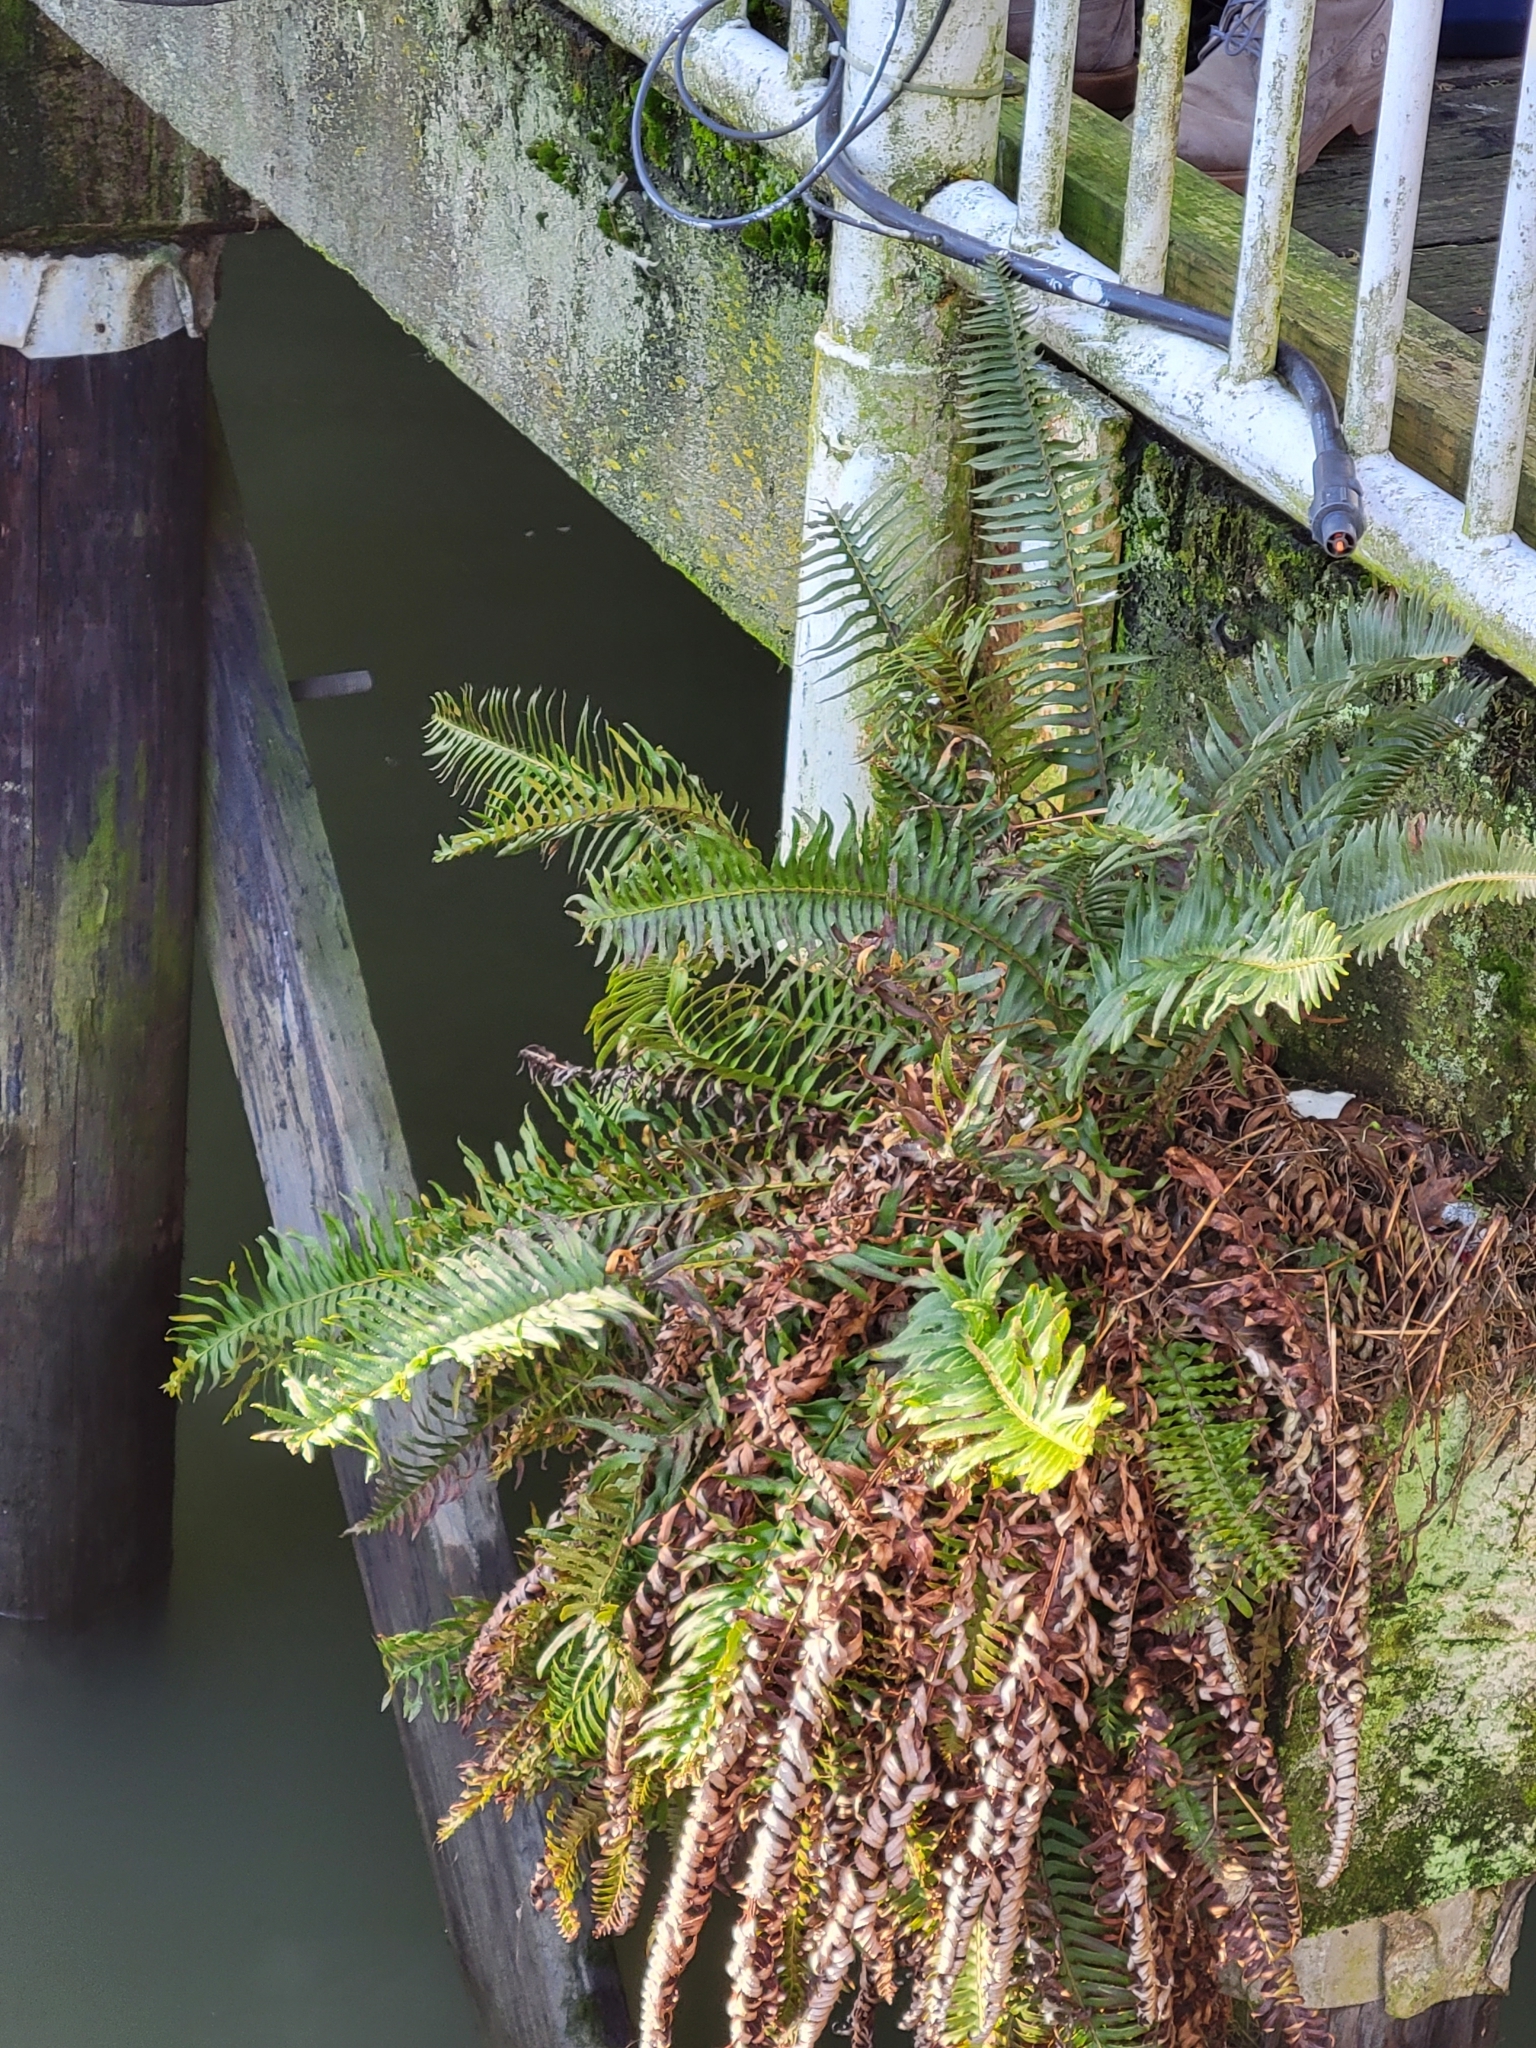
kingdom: Plantae
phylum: Tracheophyta
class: Polypodiopsida
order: Polypodiales
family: Dryopteridaceae
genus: Polystichum
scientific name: Polystichum munitum
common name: Western sword-fern
